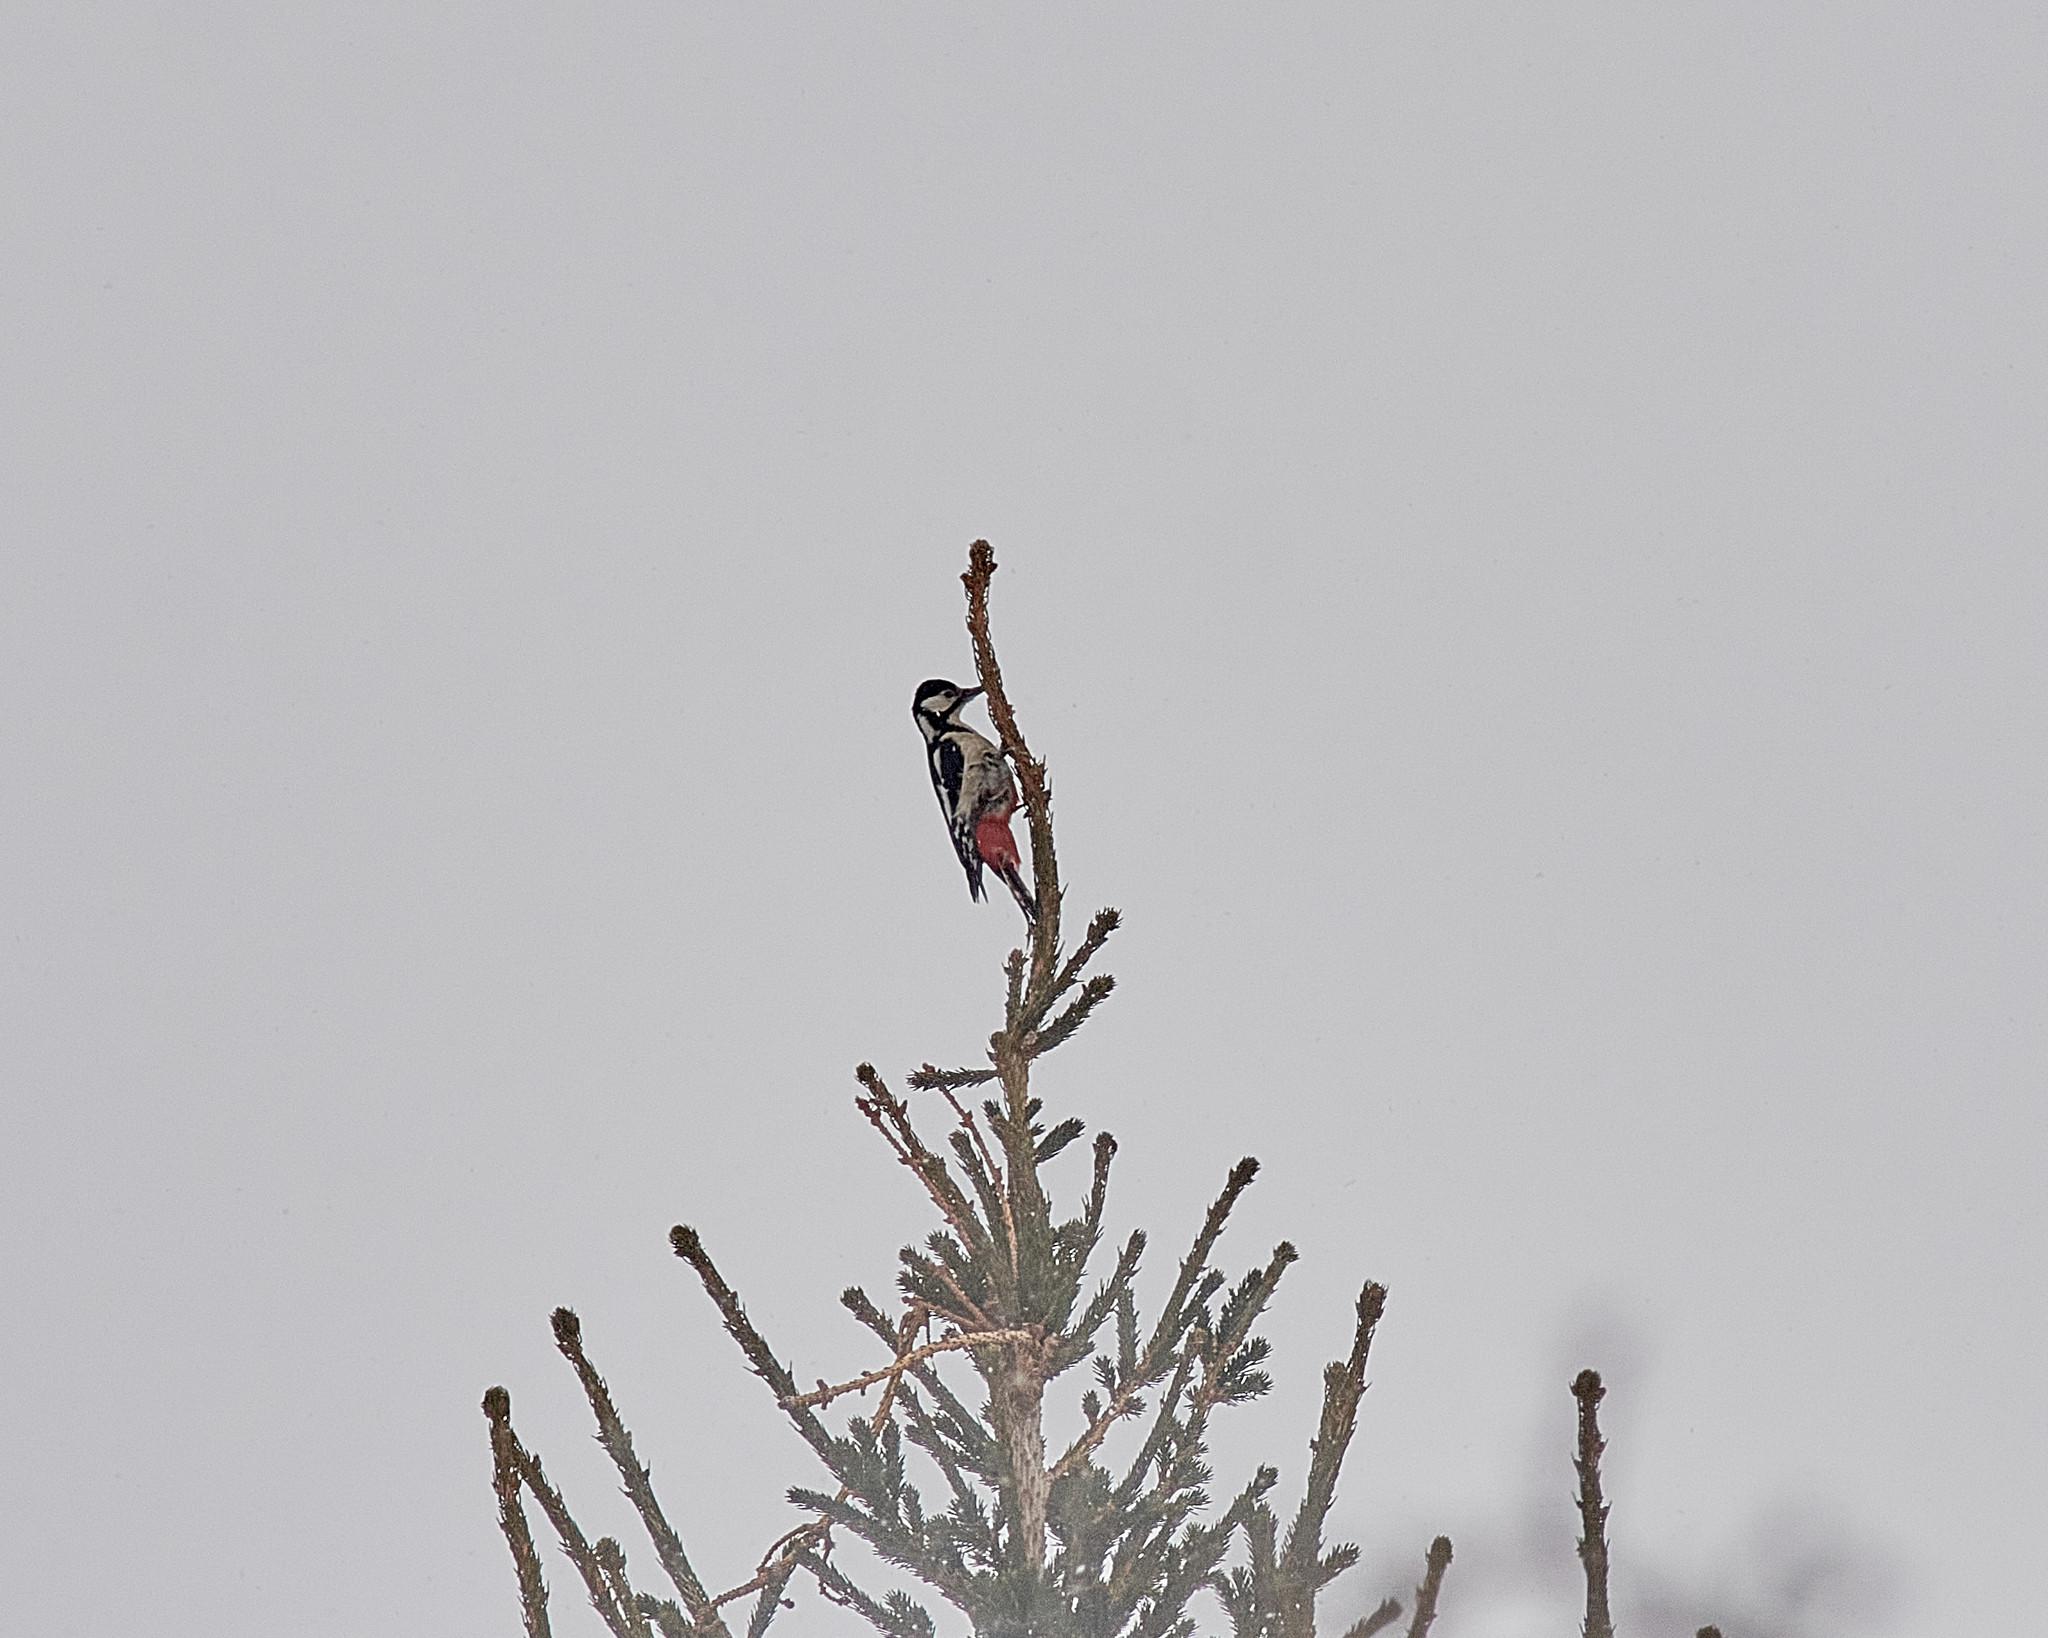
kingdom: Animalia
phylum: Chordata
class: Aves
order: Piciformes
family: Picidae
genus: Dendrocopos
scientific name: Dendrocopos major
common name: Great spotted woodpecker
